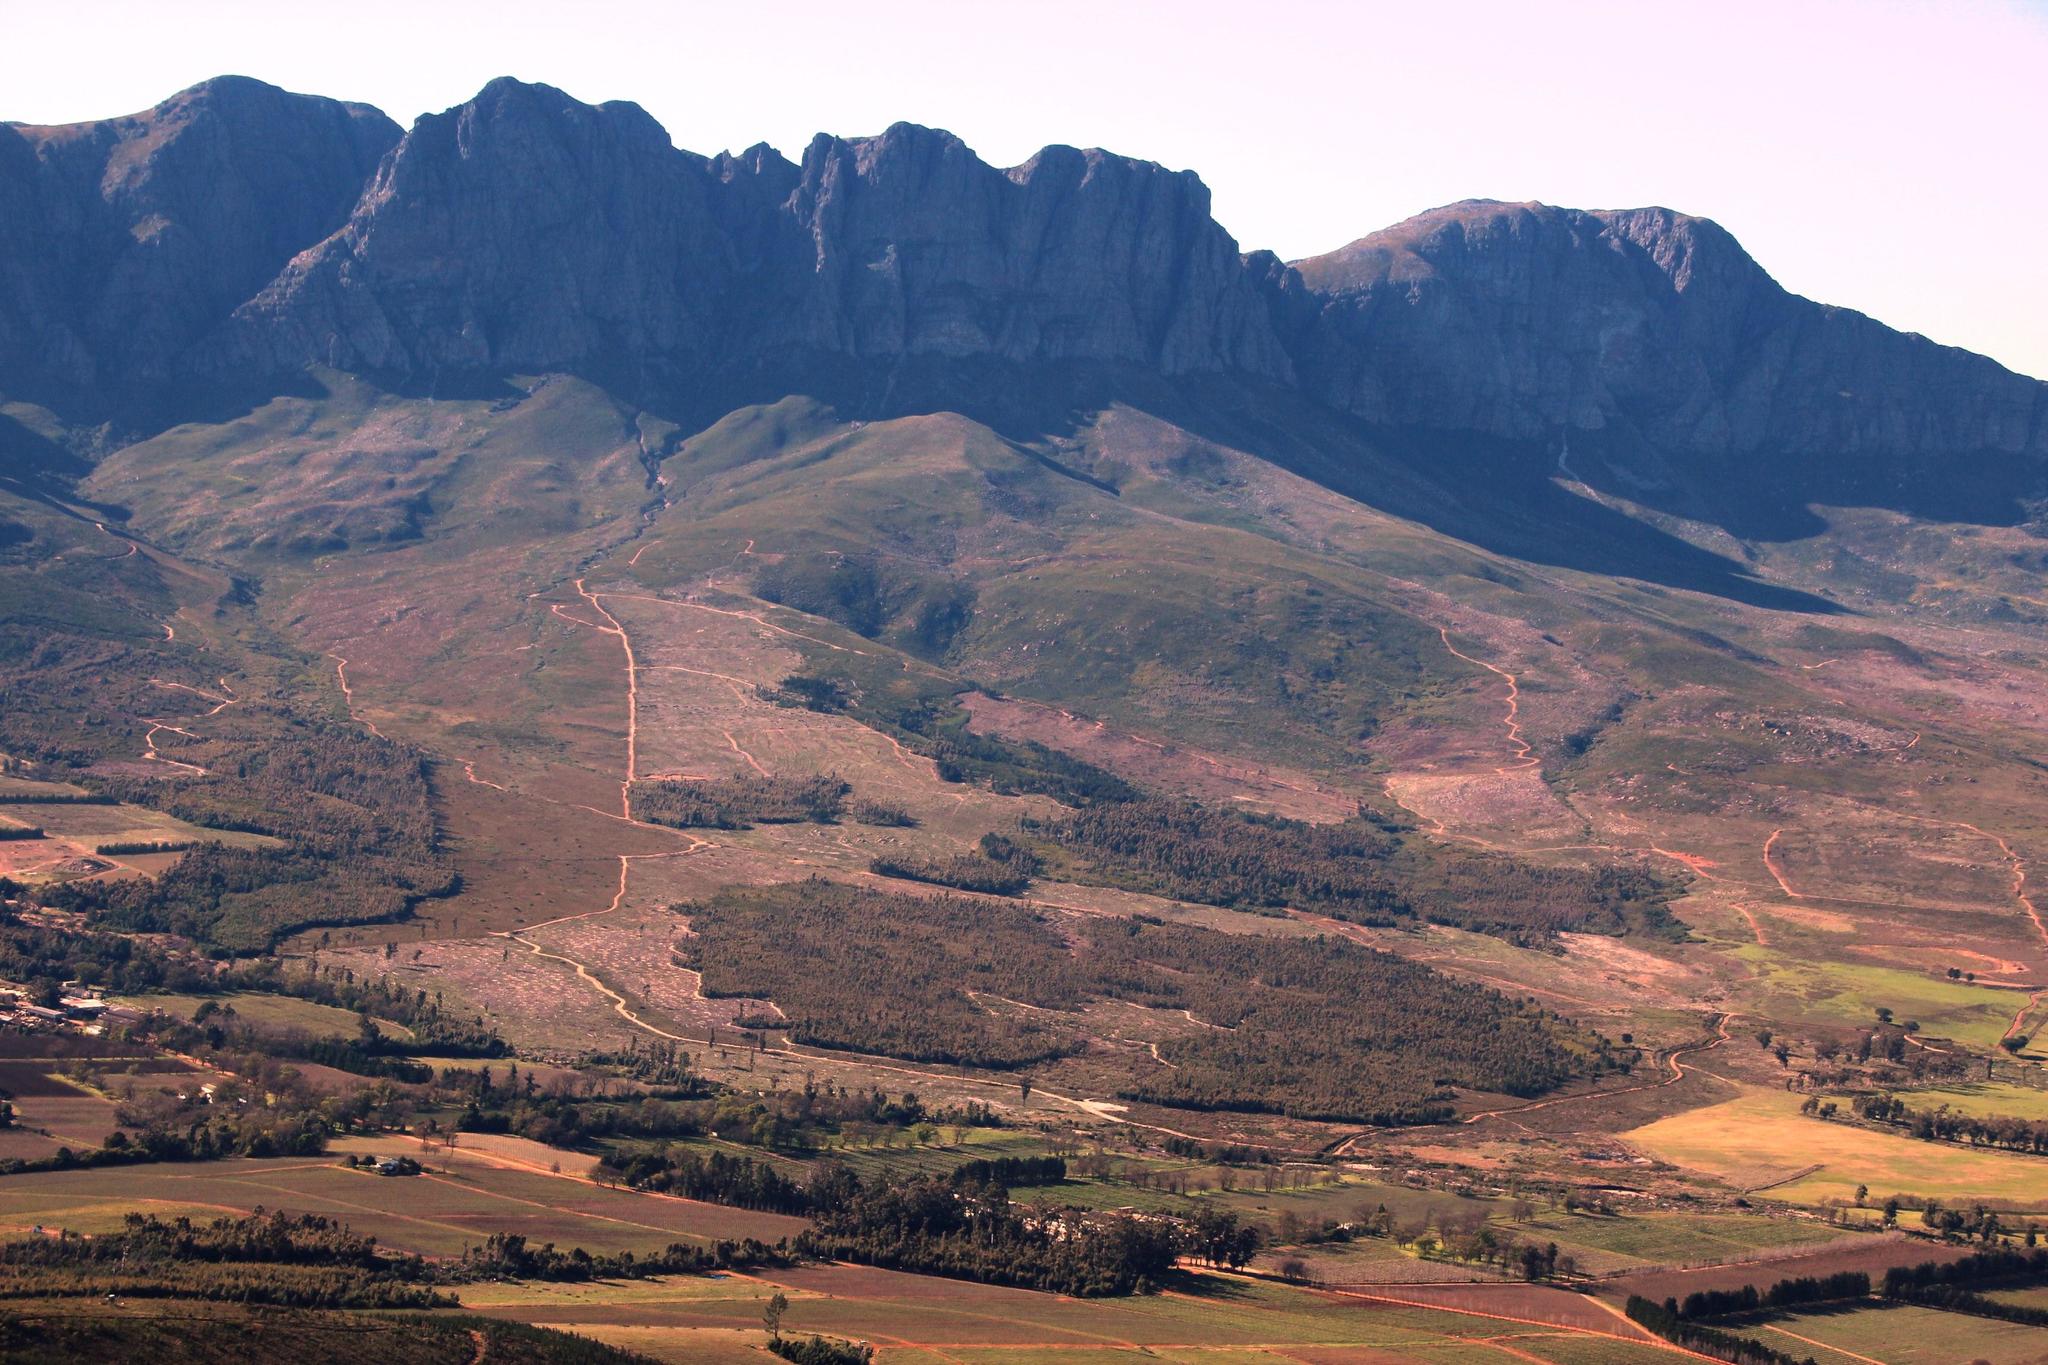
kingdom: Plantae
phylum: Tracheophyta
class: Pinopsida
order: Pinales
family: Pinaceae
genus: Pinus
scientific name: Pinus pinaster
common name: Maritime pine
